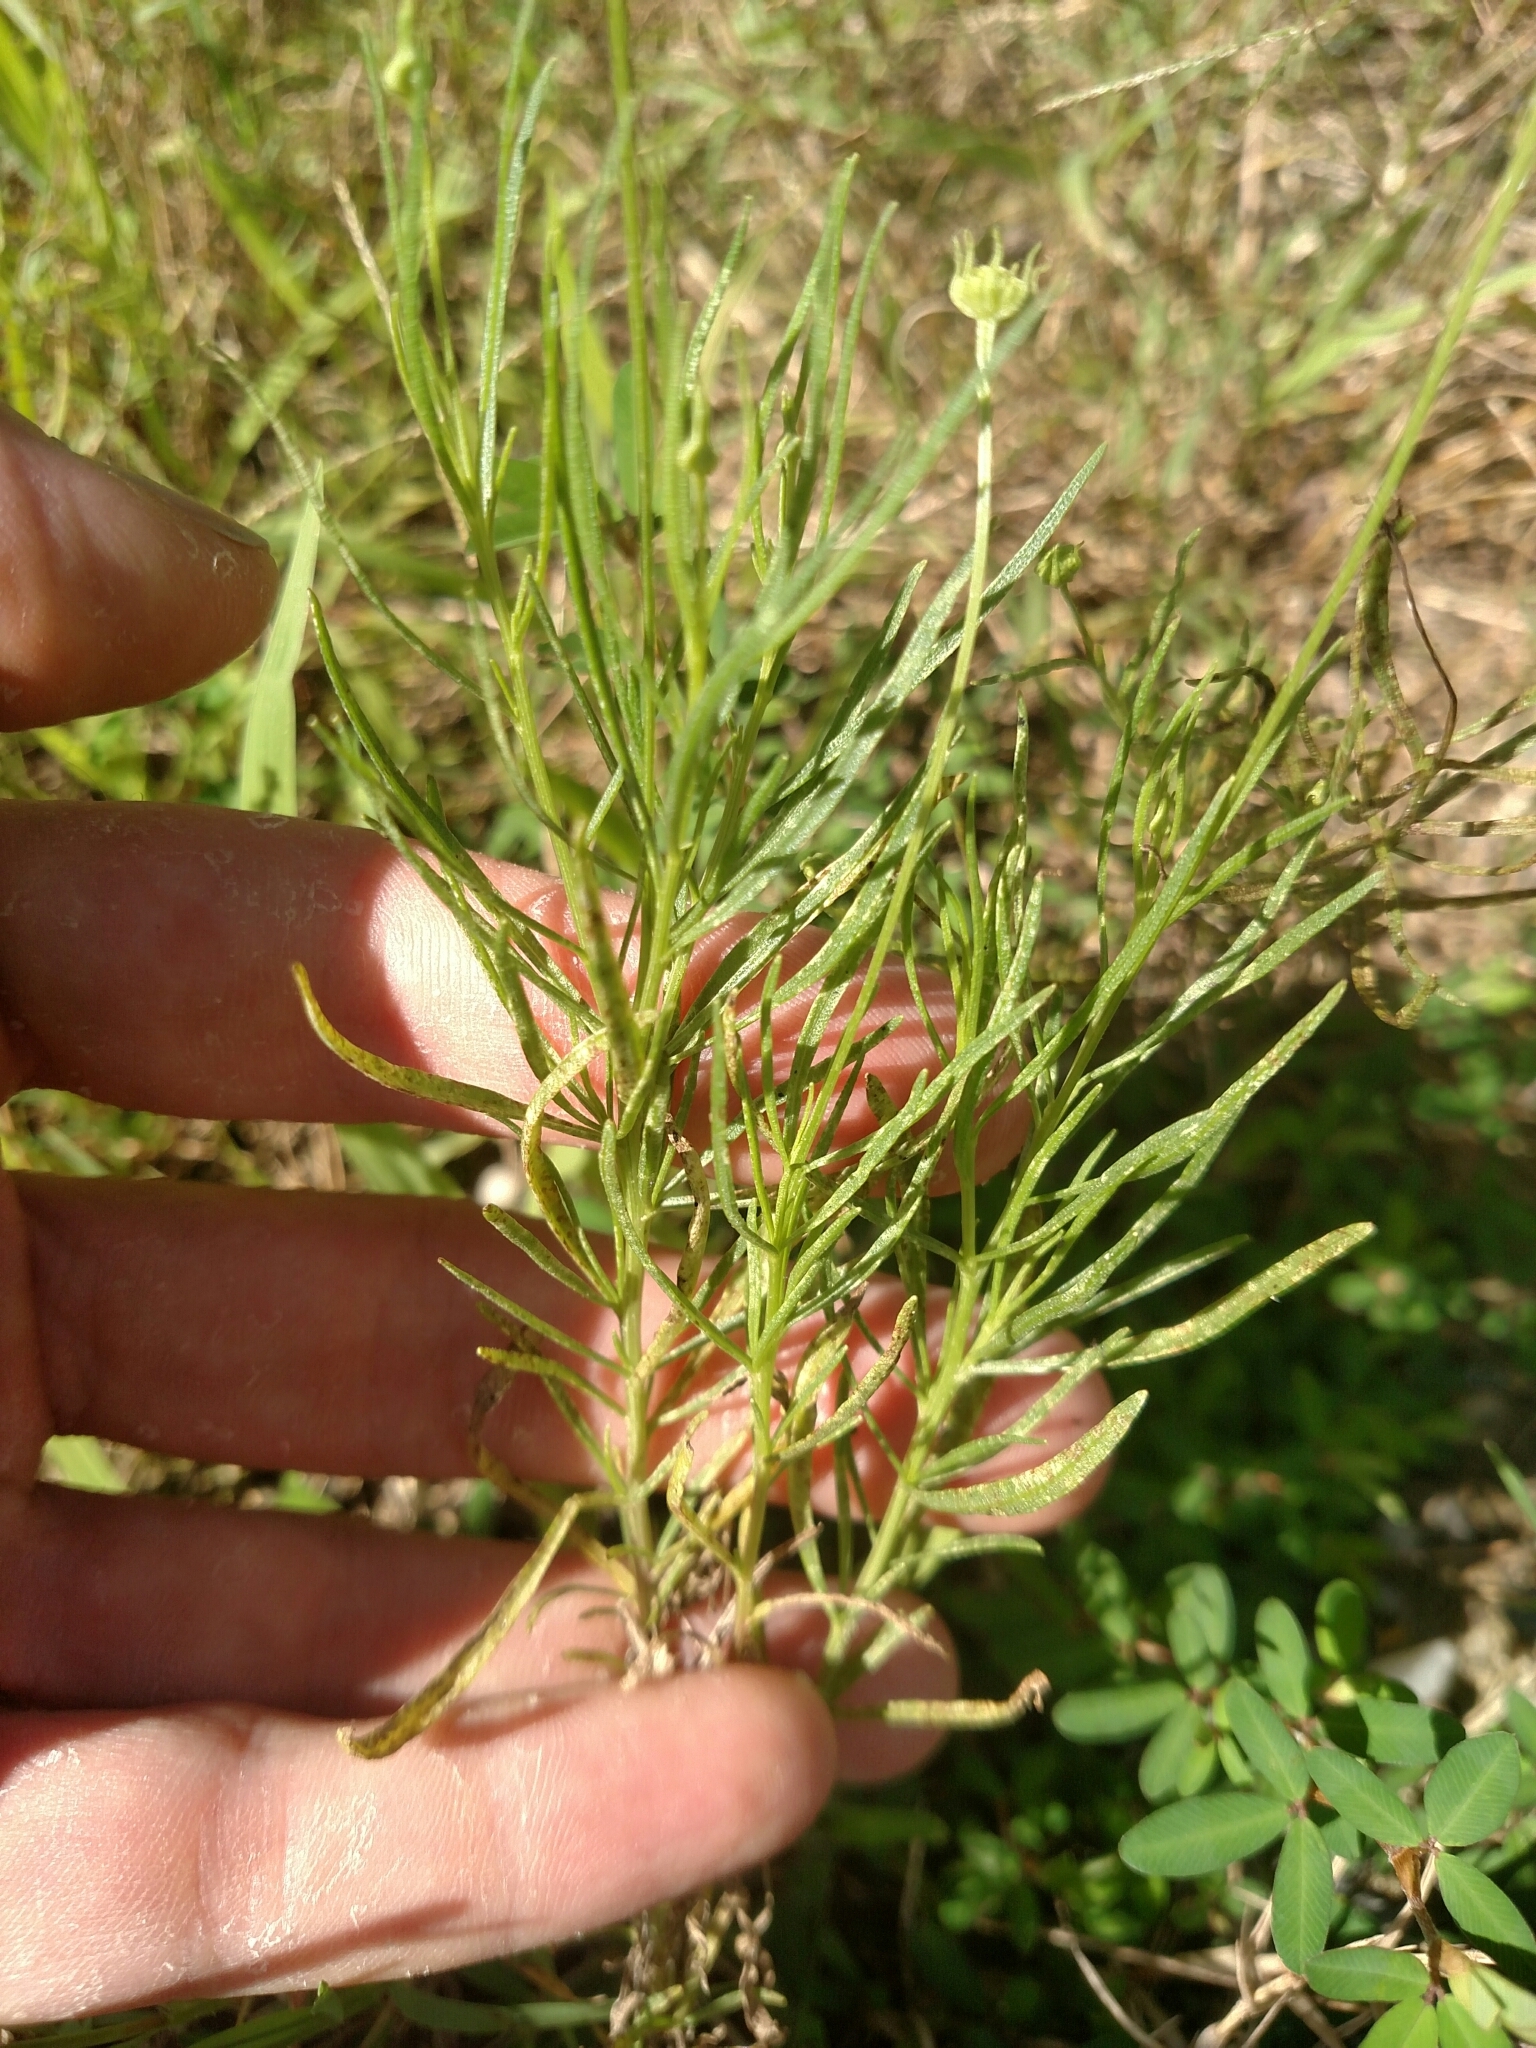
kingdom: Plantae
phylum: Tracheophyta
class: Magnoliopsida
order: Asterales
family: Asteraceae
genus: Helenium
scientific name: Helenium amarum
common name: Bitter sneezeweed
